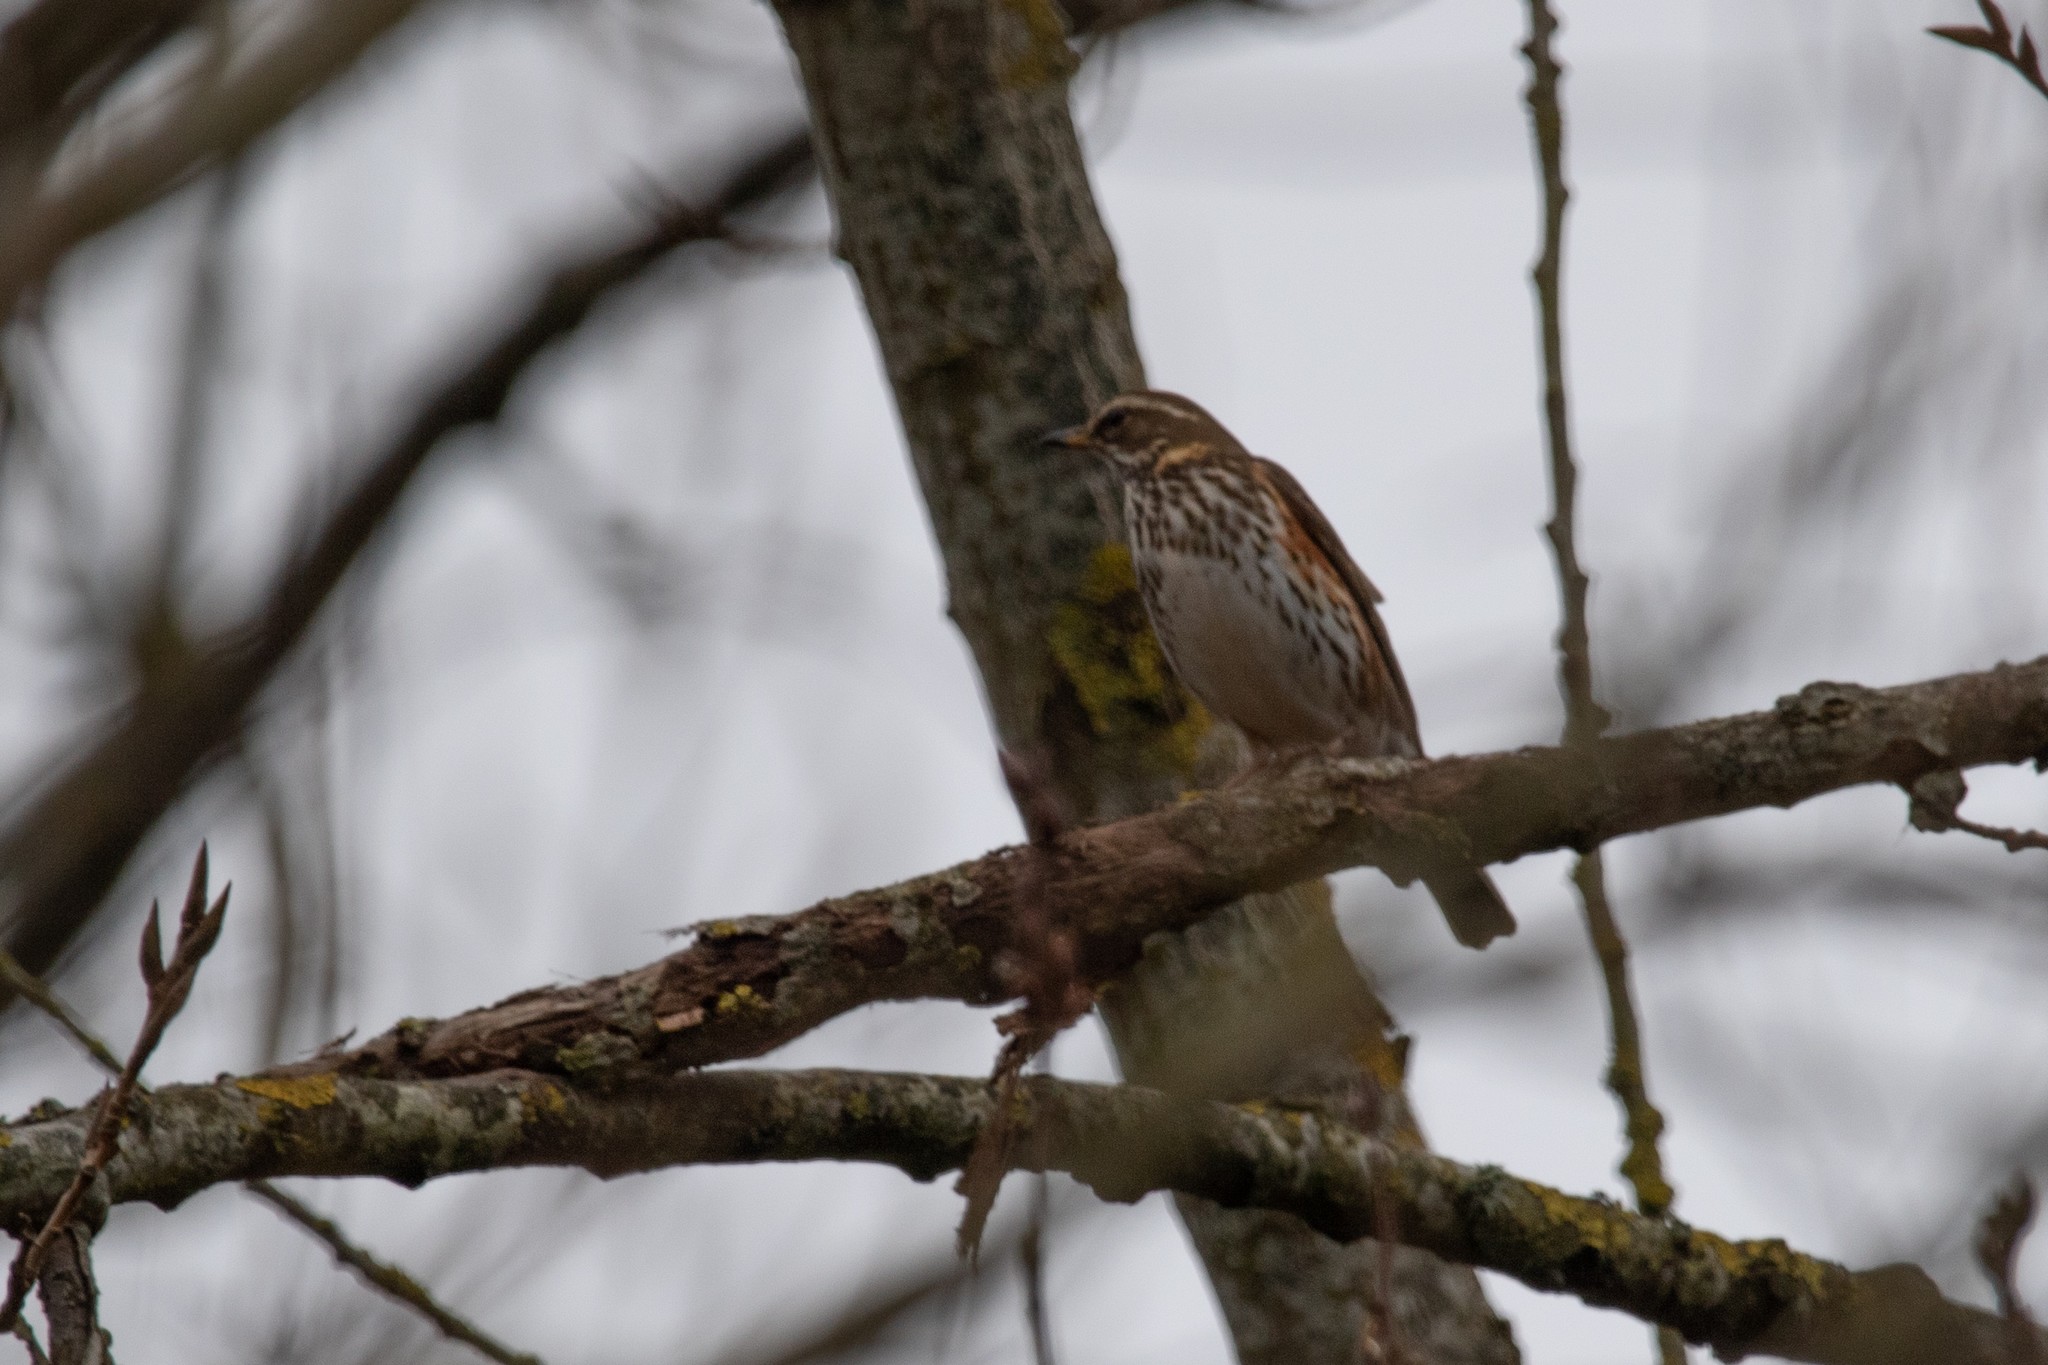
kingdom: Animalia
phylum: Chordata
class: Aves
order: Passeriformes
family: Turdidae
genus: Turdus
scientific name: Turdus iliacus
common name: Redwing
